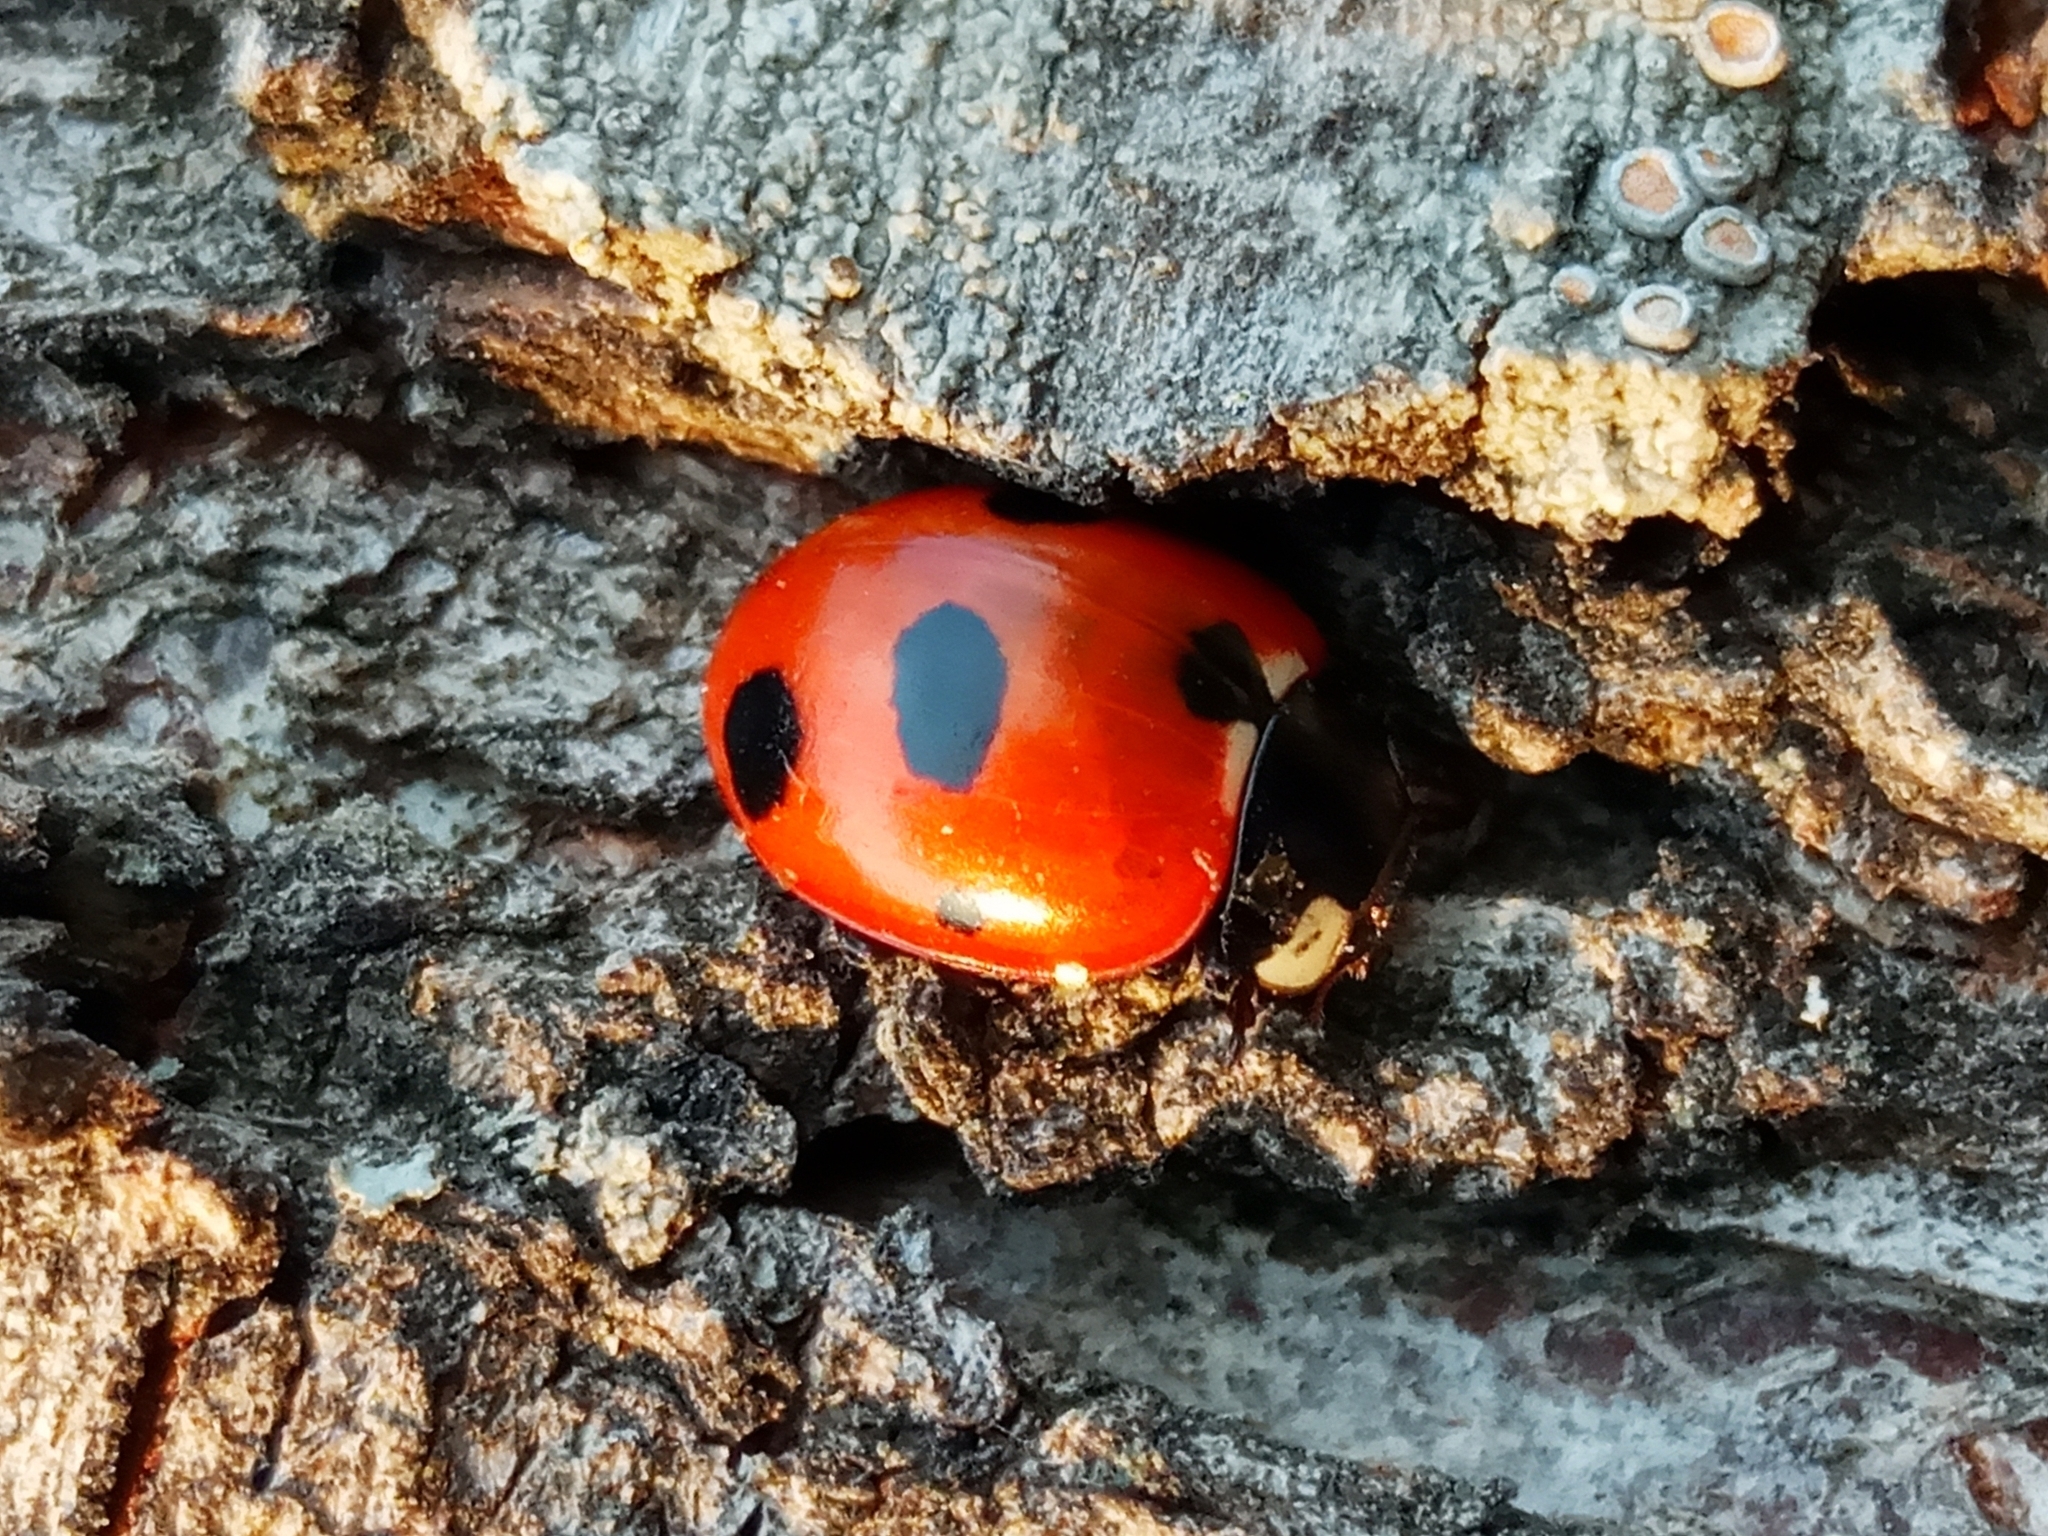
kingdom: Animalia
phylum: Arthropoda
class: Insecta
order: Coleoptera
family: Coccinellidae
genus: Coccinella
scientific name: Coccinella magnifica
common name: Scarce 7-spot ladybird
